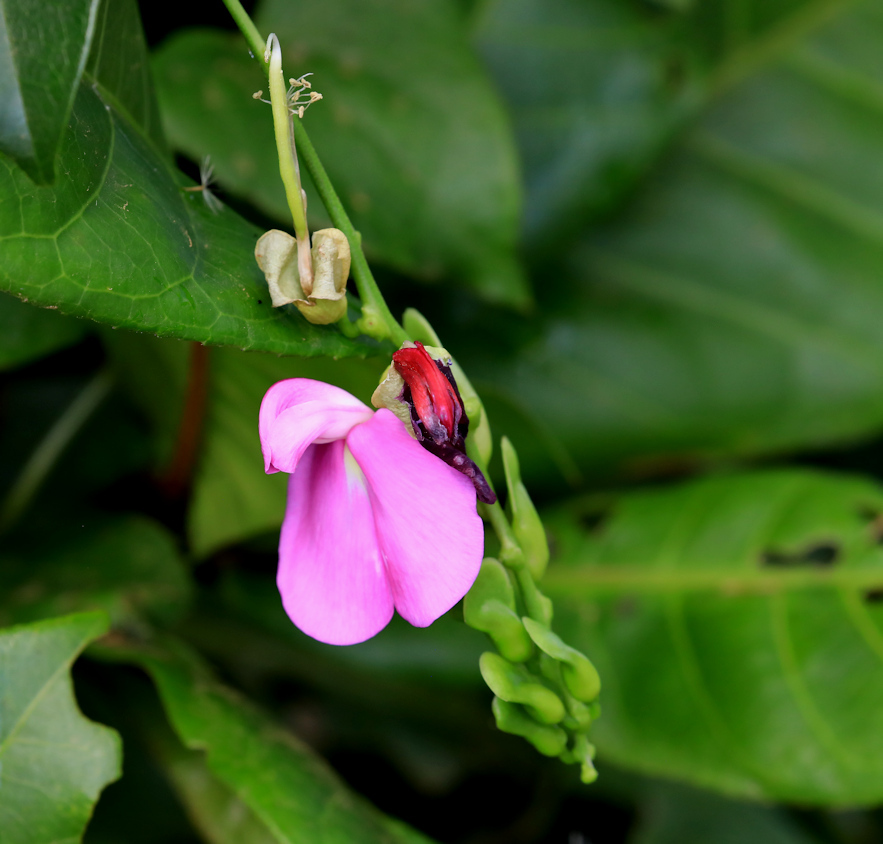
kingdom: Plantae
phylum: Tracheophyta
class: Magnoliopsida
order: Fabales
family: Fabaceae
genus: Canavalia
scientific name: Canavalia bonariensis
